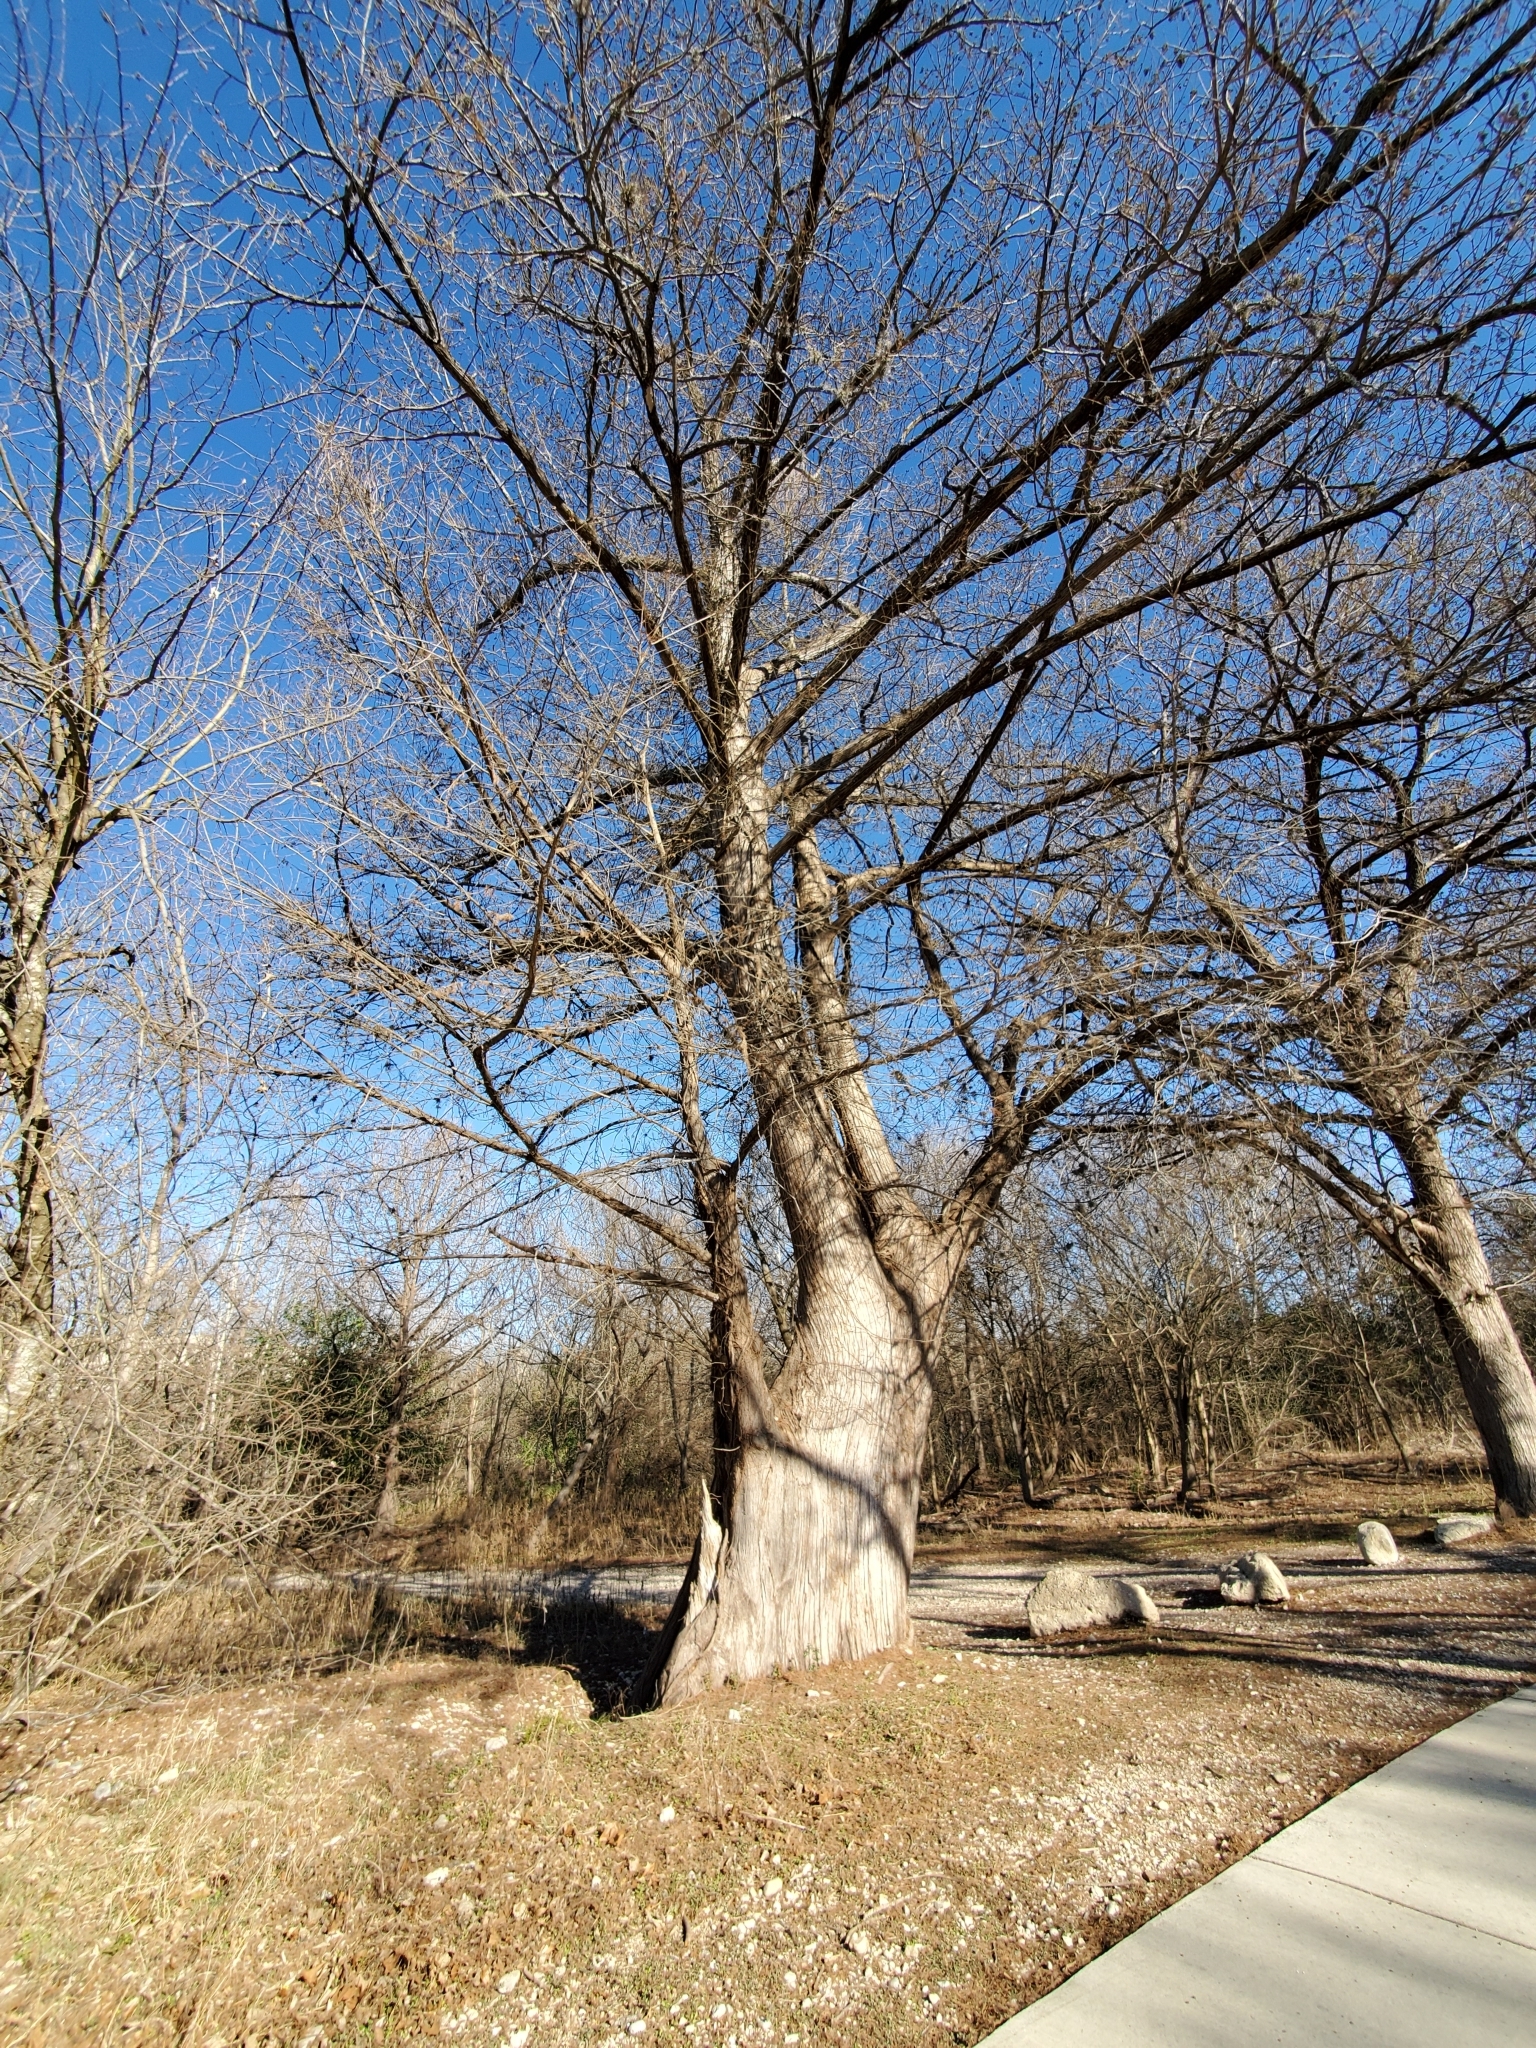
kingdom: Plantae
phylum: Tracheophyta
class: Pinopsida
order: Pinales
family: Cupressaceae
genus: Taxodium
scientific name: Taxodium distichum
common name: Bald cypress
